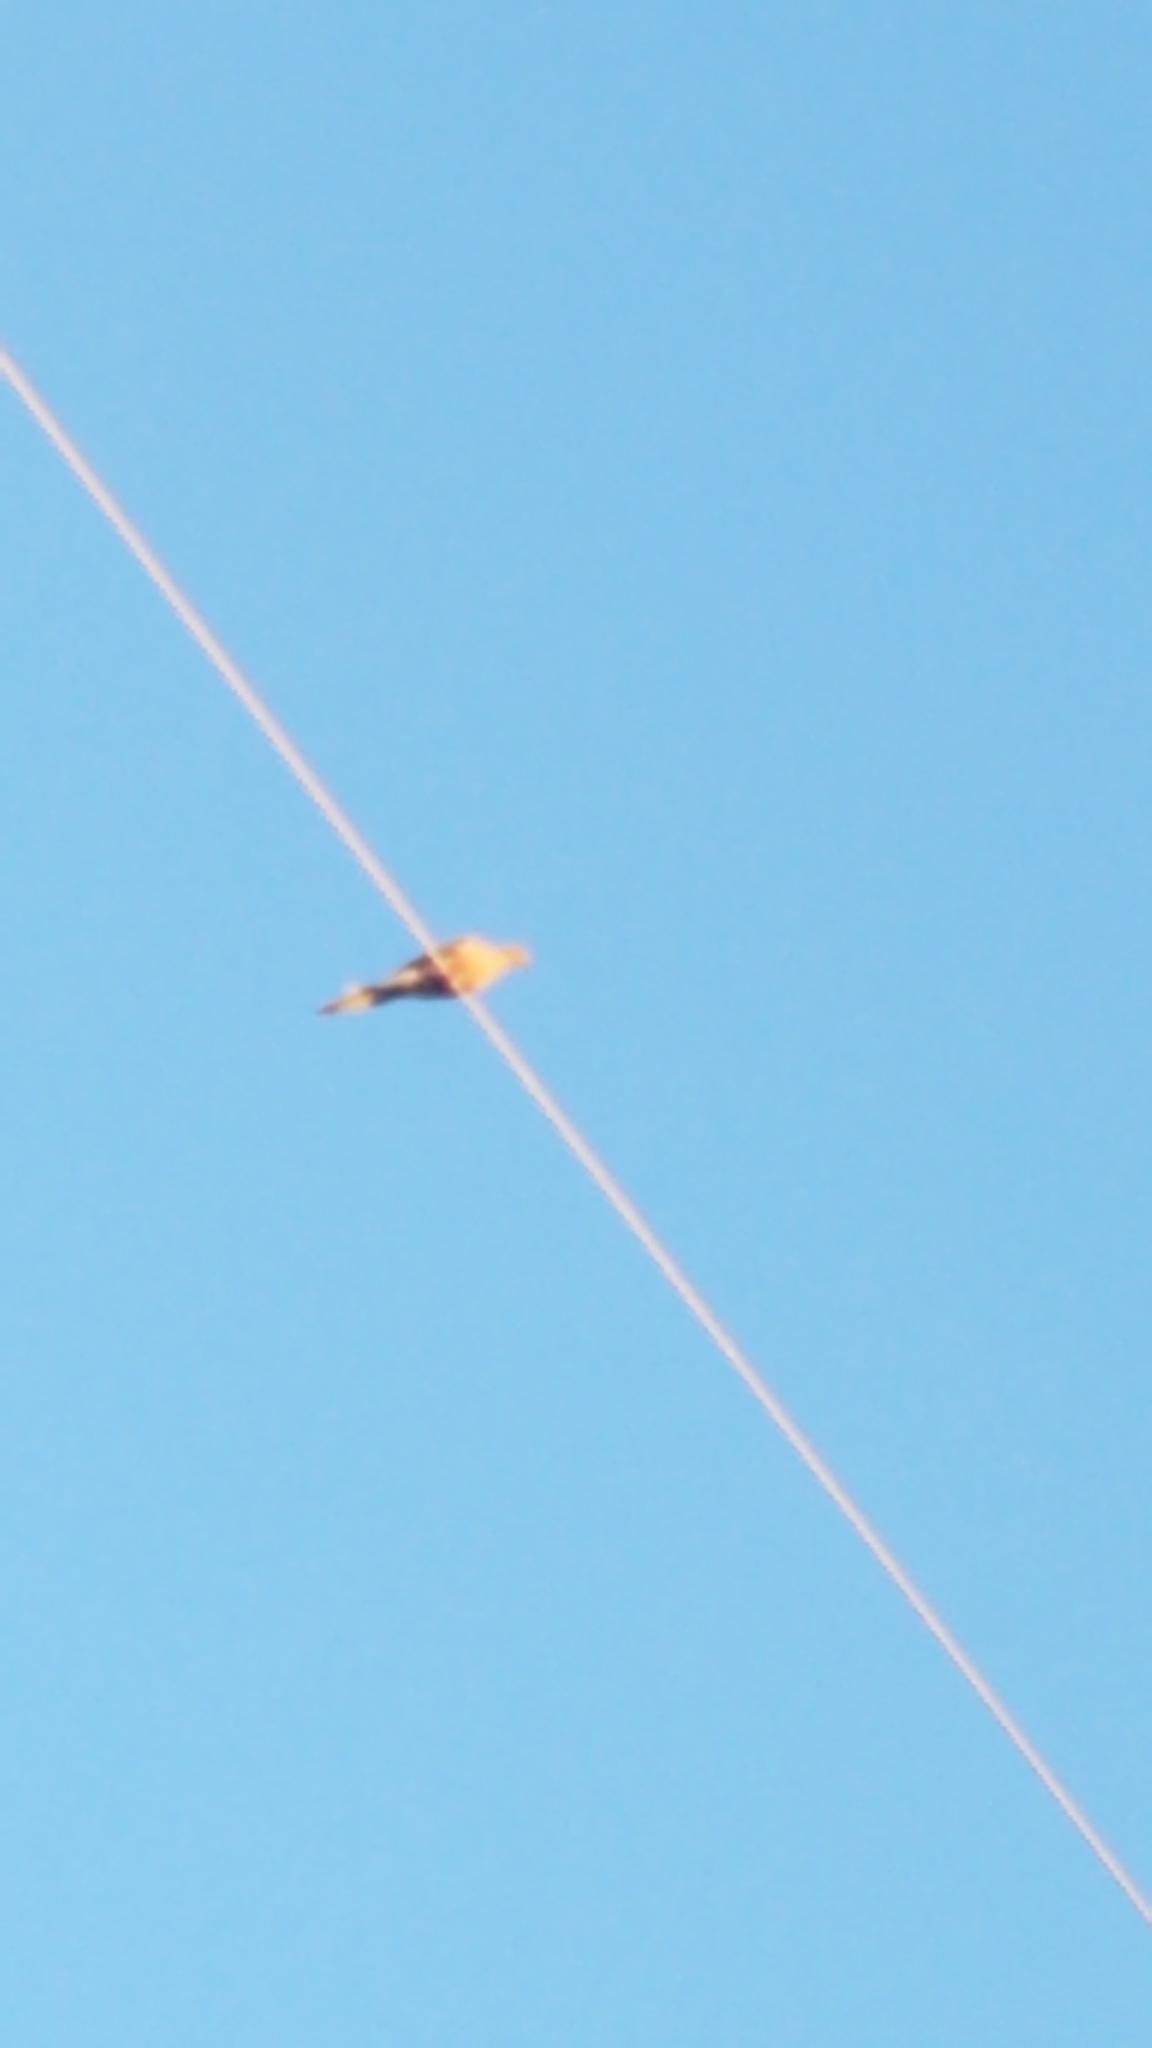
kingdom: Animalia
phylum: Chordata
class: Aves
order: Columbiformes
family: Columbidae
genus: Zenaida
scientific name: Zenaida macroura
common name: Mourning dove
